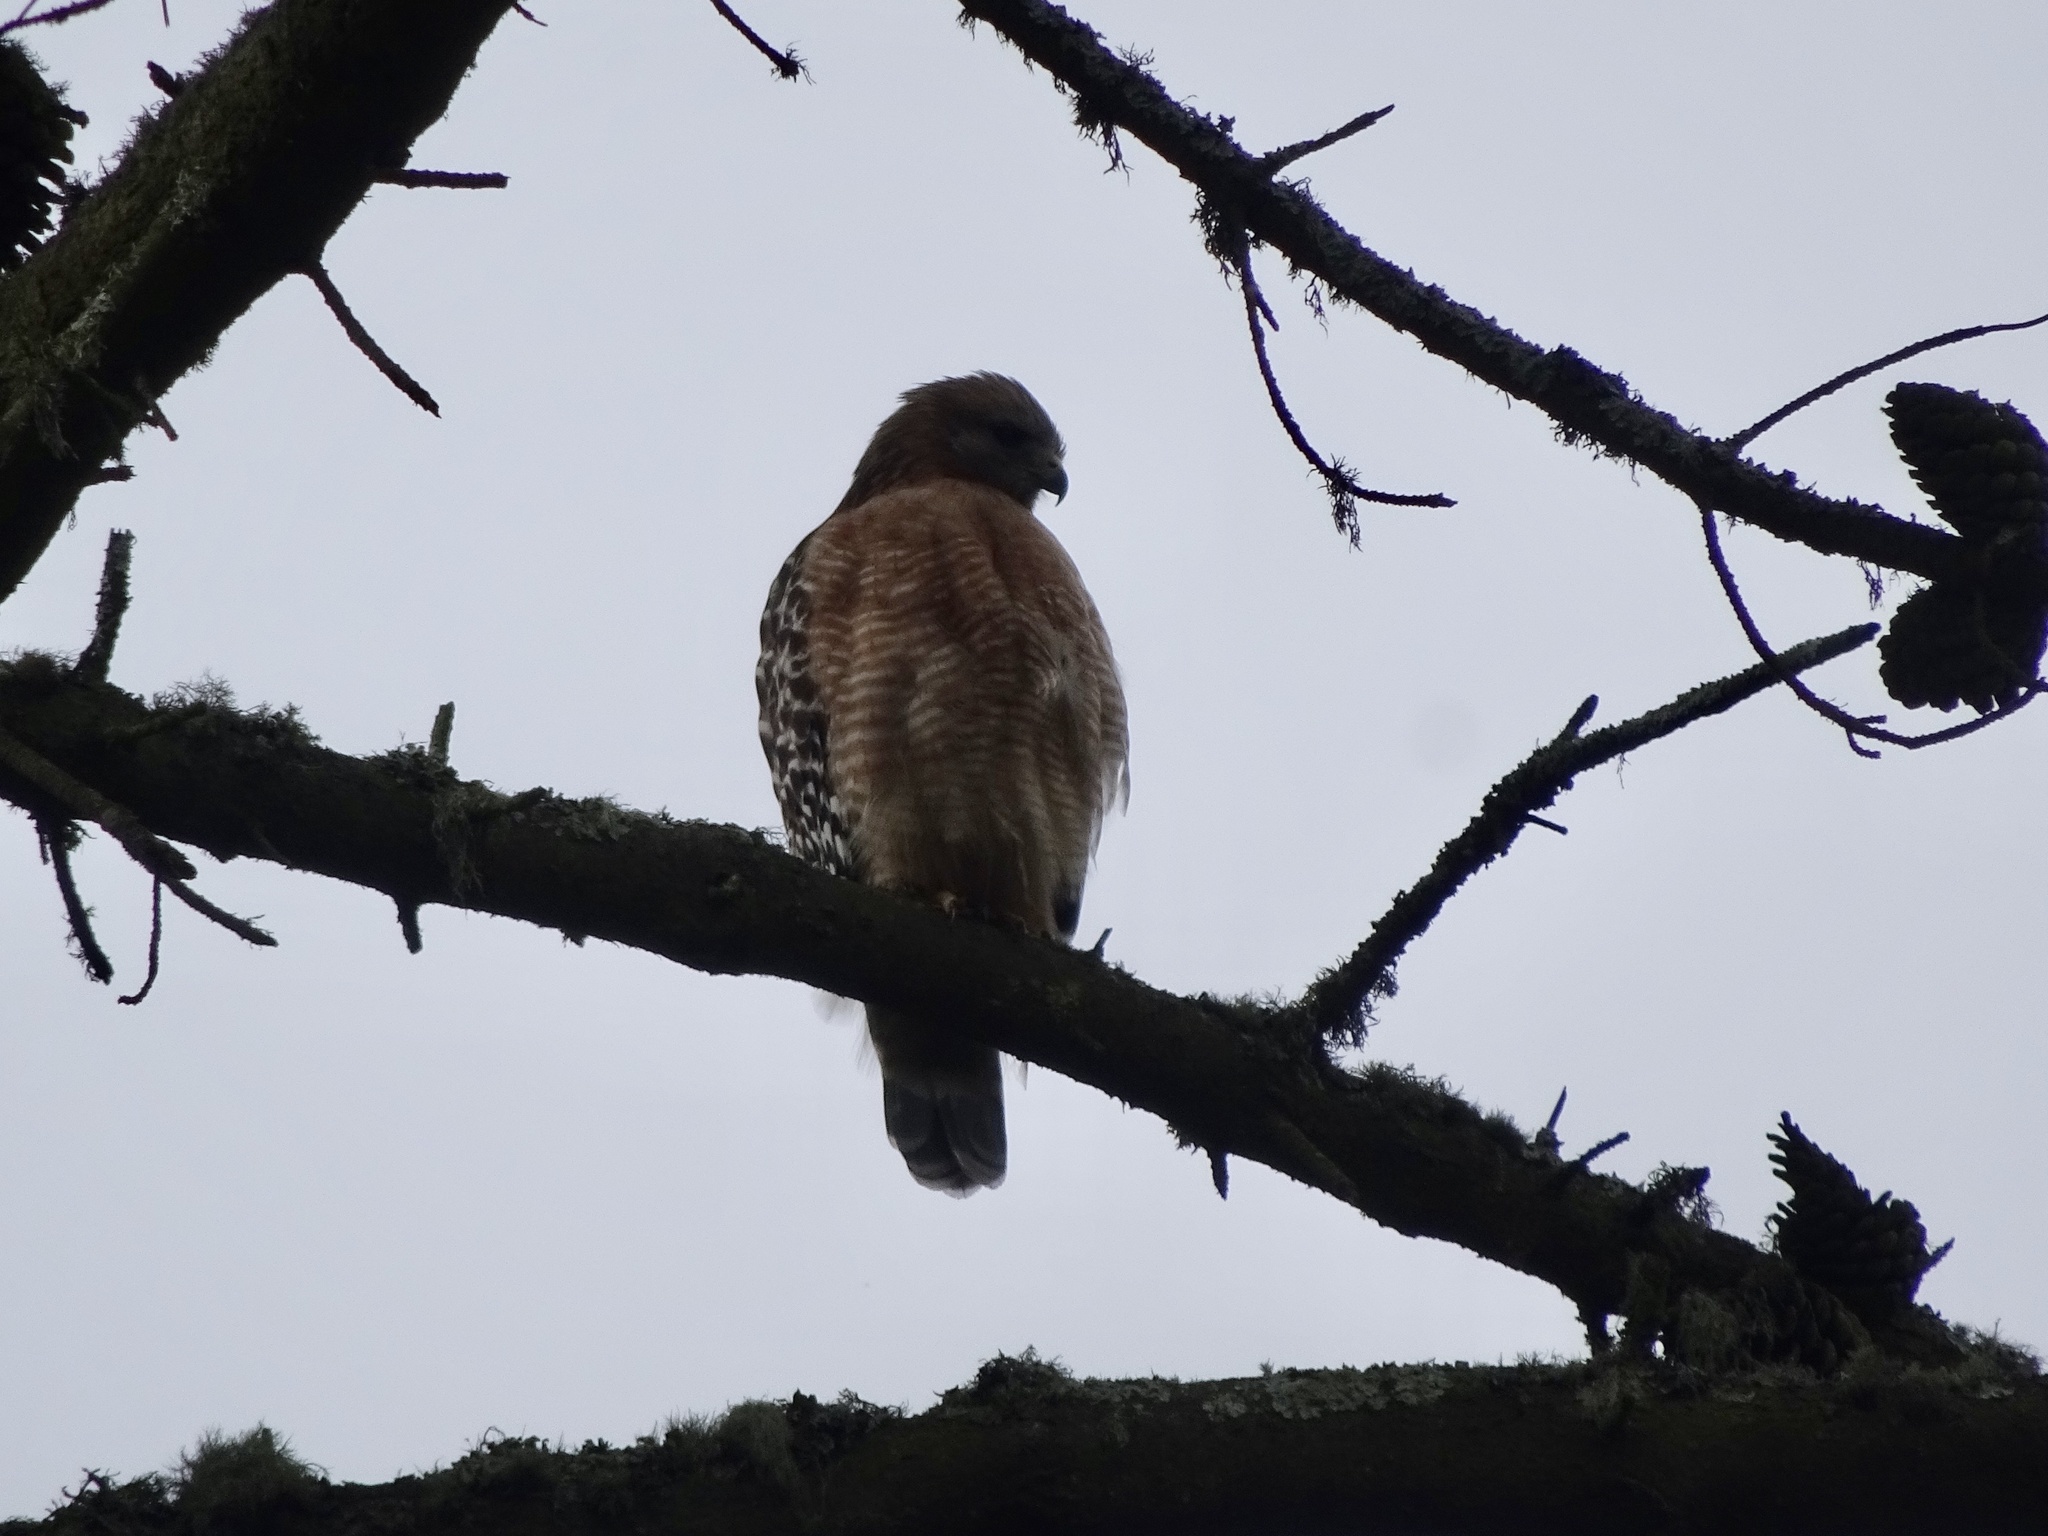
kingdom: Animalia
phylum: Chordata
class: Aves
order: Accipitriformes
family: Accipitridae
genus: Buteo
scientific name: Buteo lineatus
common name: Red-shouldered hawk
